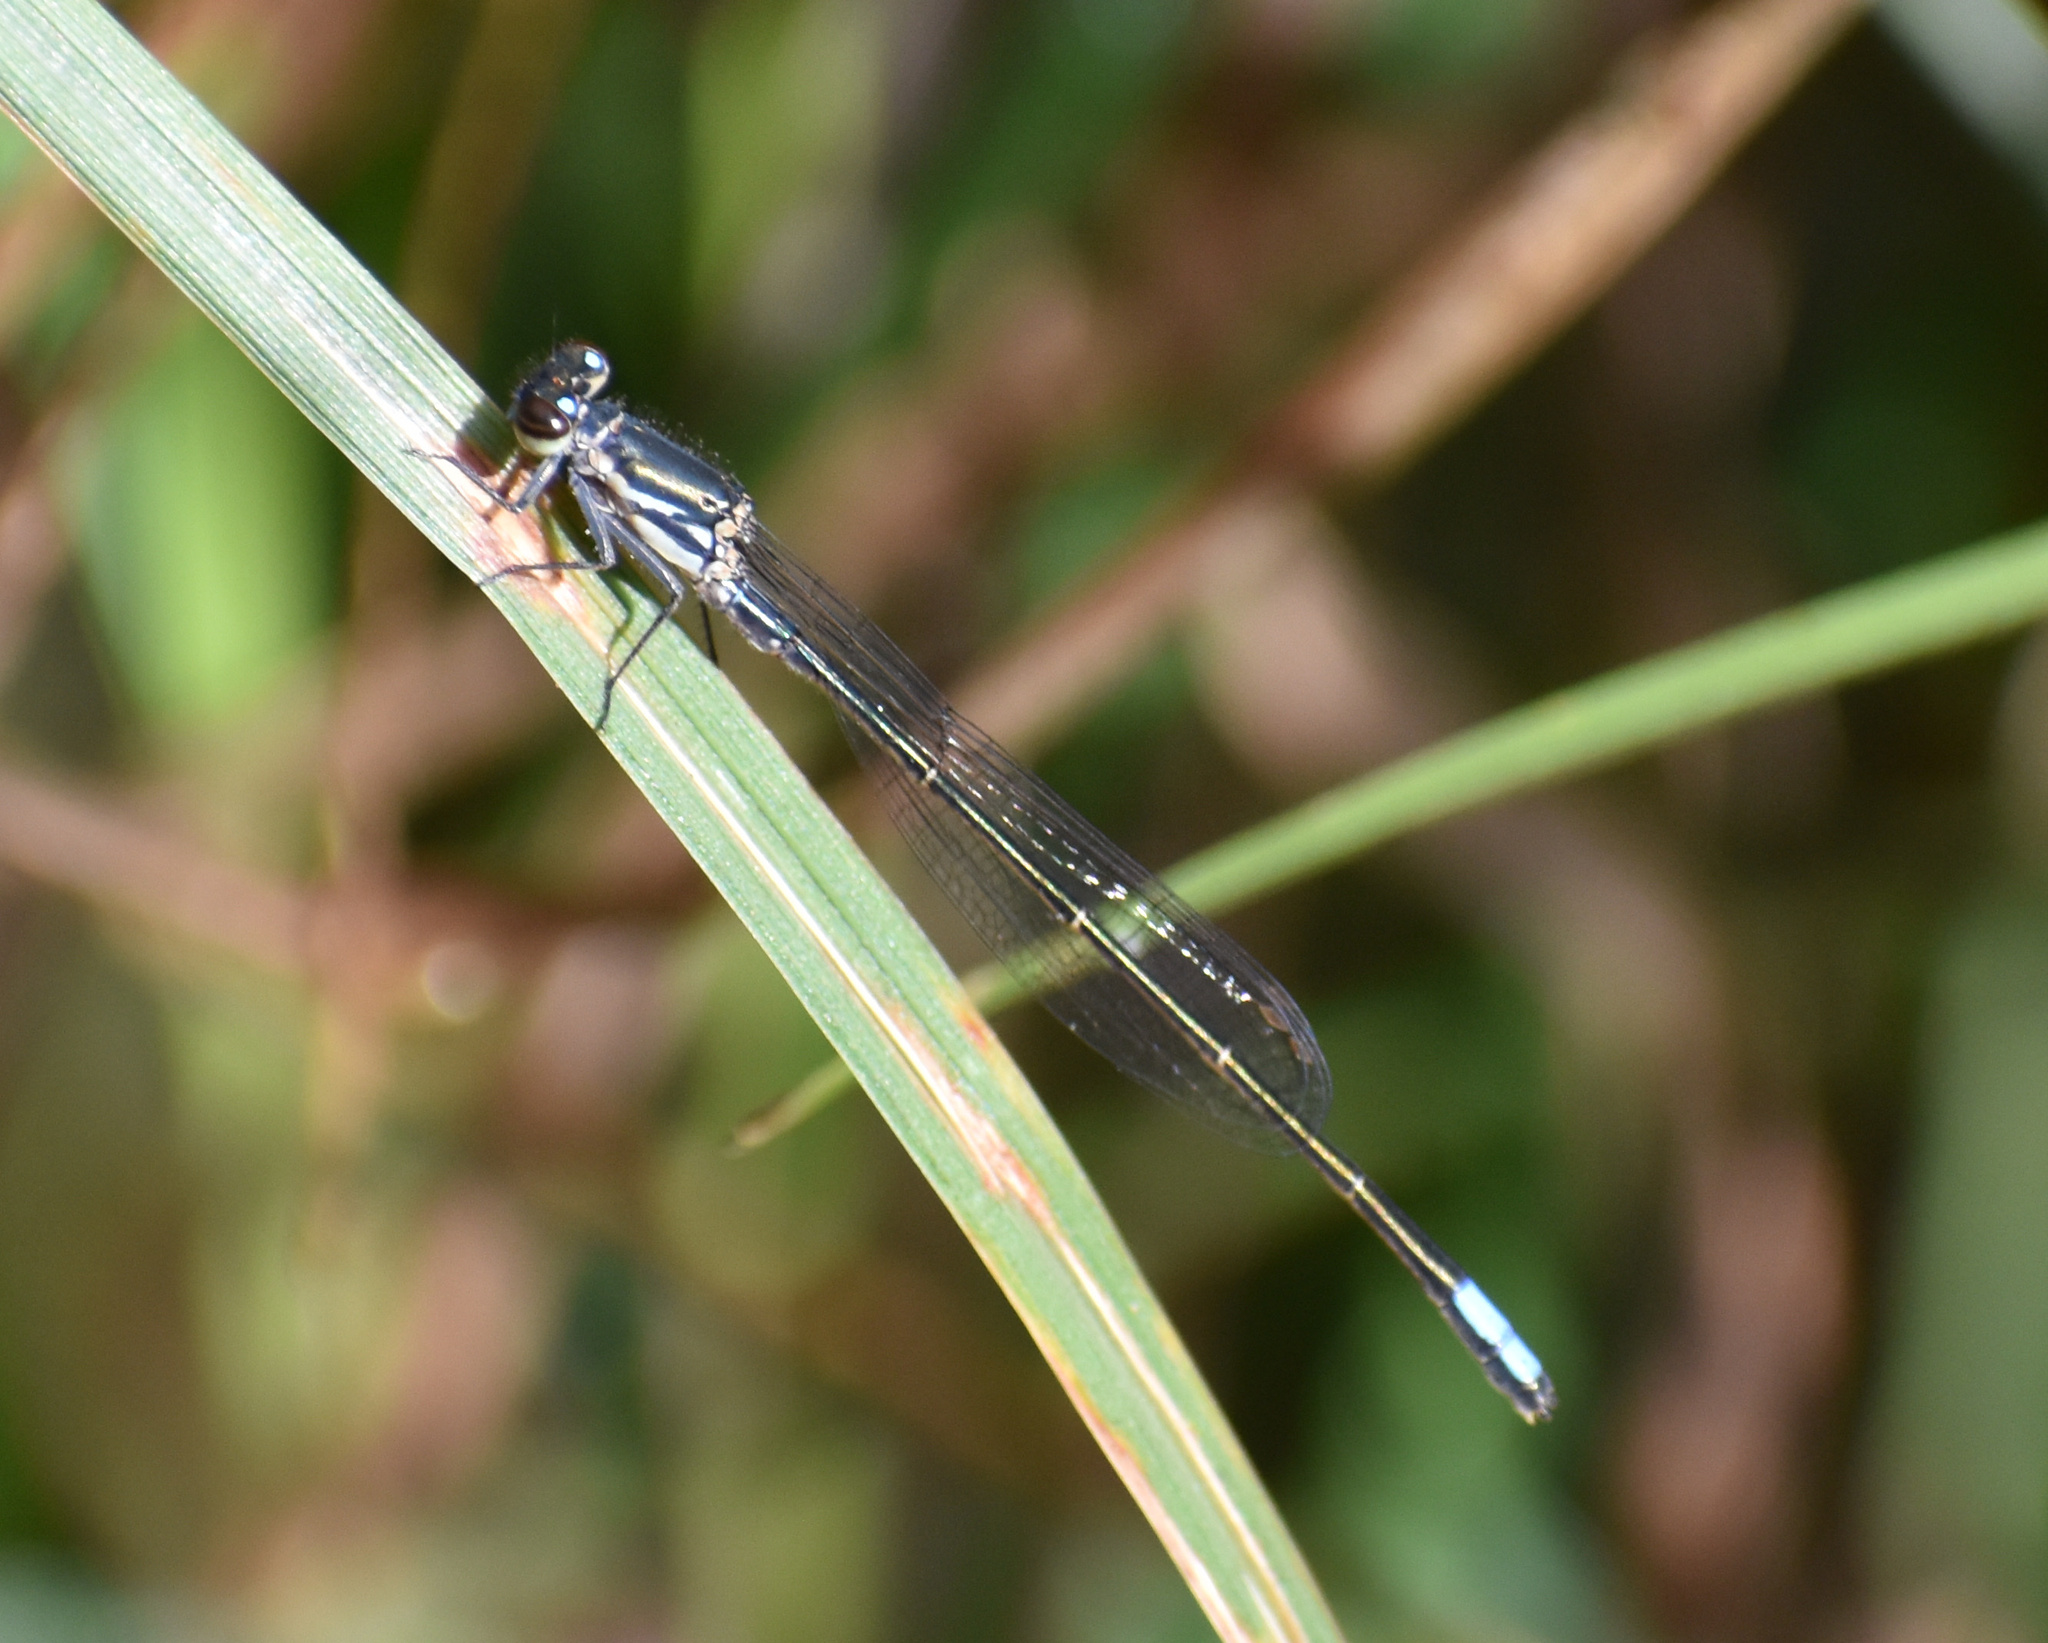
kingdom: Animalia
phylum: Arthropoda
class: Insecta
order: Odonata
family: Coenagrionidae
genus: Pseudagrion
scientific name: Pseudagrion salisburyense
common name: Slate sprite
